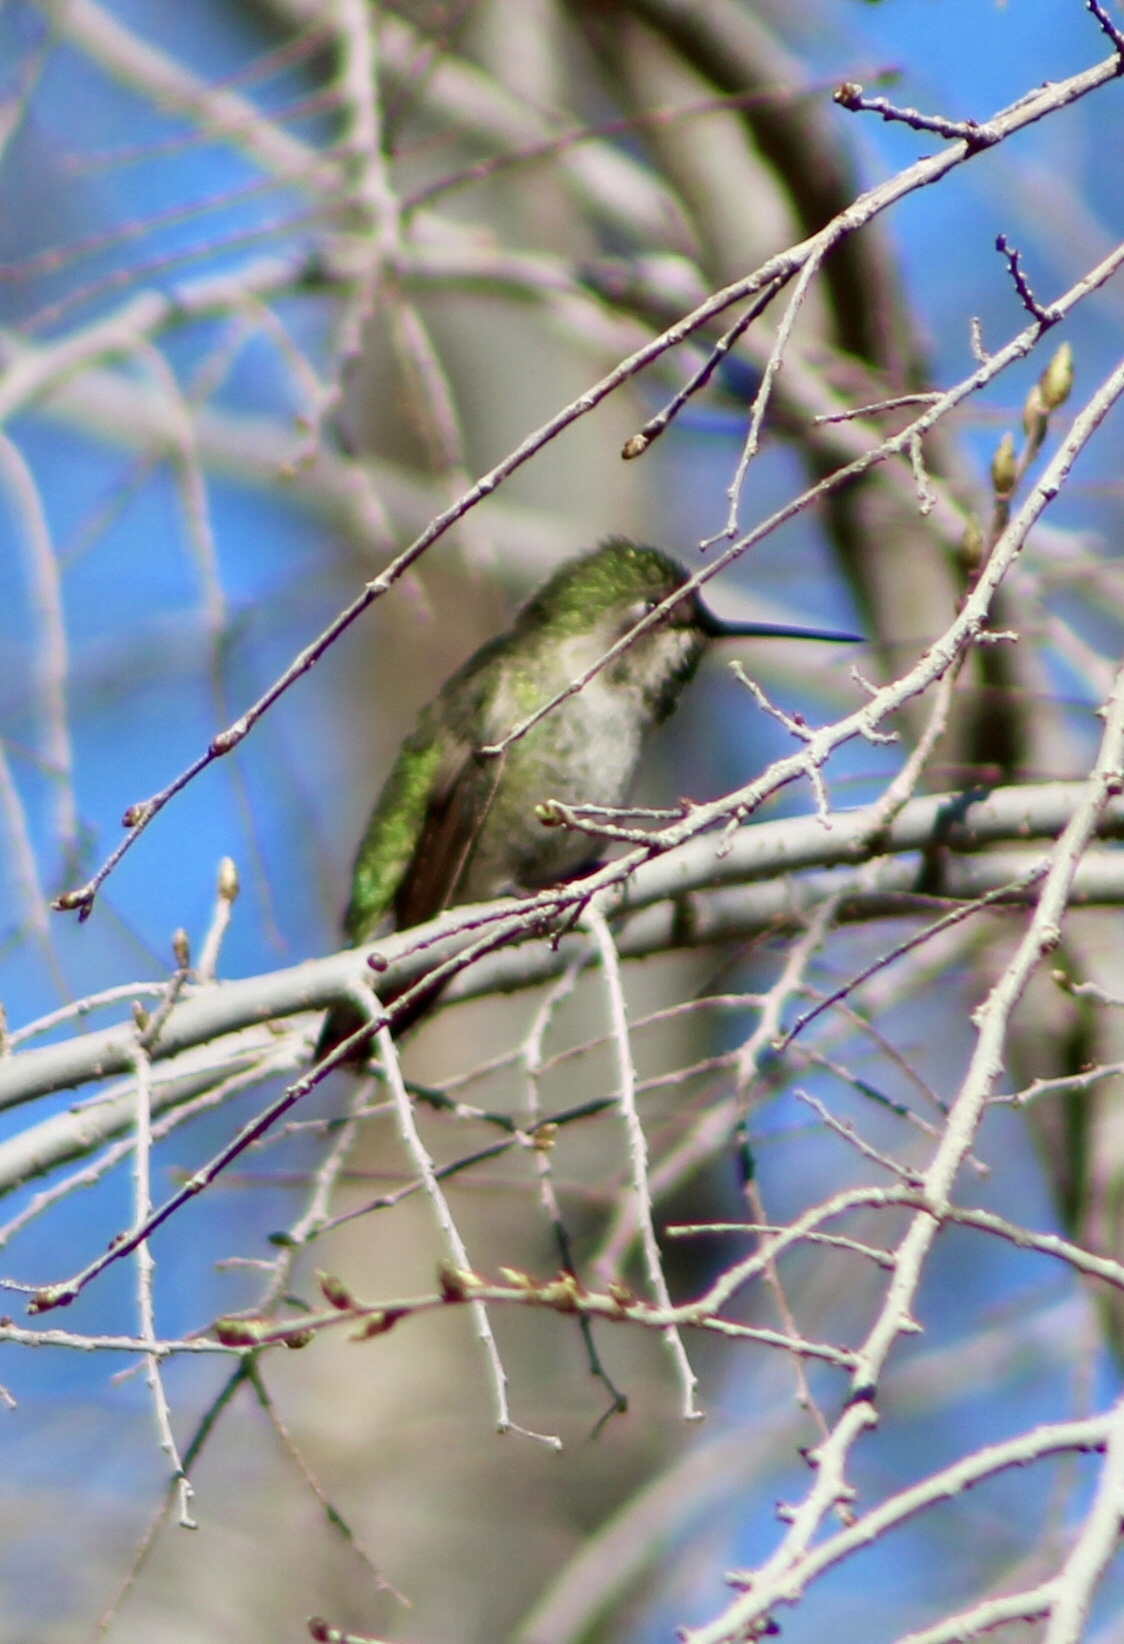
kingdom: Animalia
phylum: Chordata
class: Aves
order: Apodiformes
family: Trochilidae
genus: Calypte
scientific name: Calypte anna
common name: Anna's hummingbird
